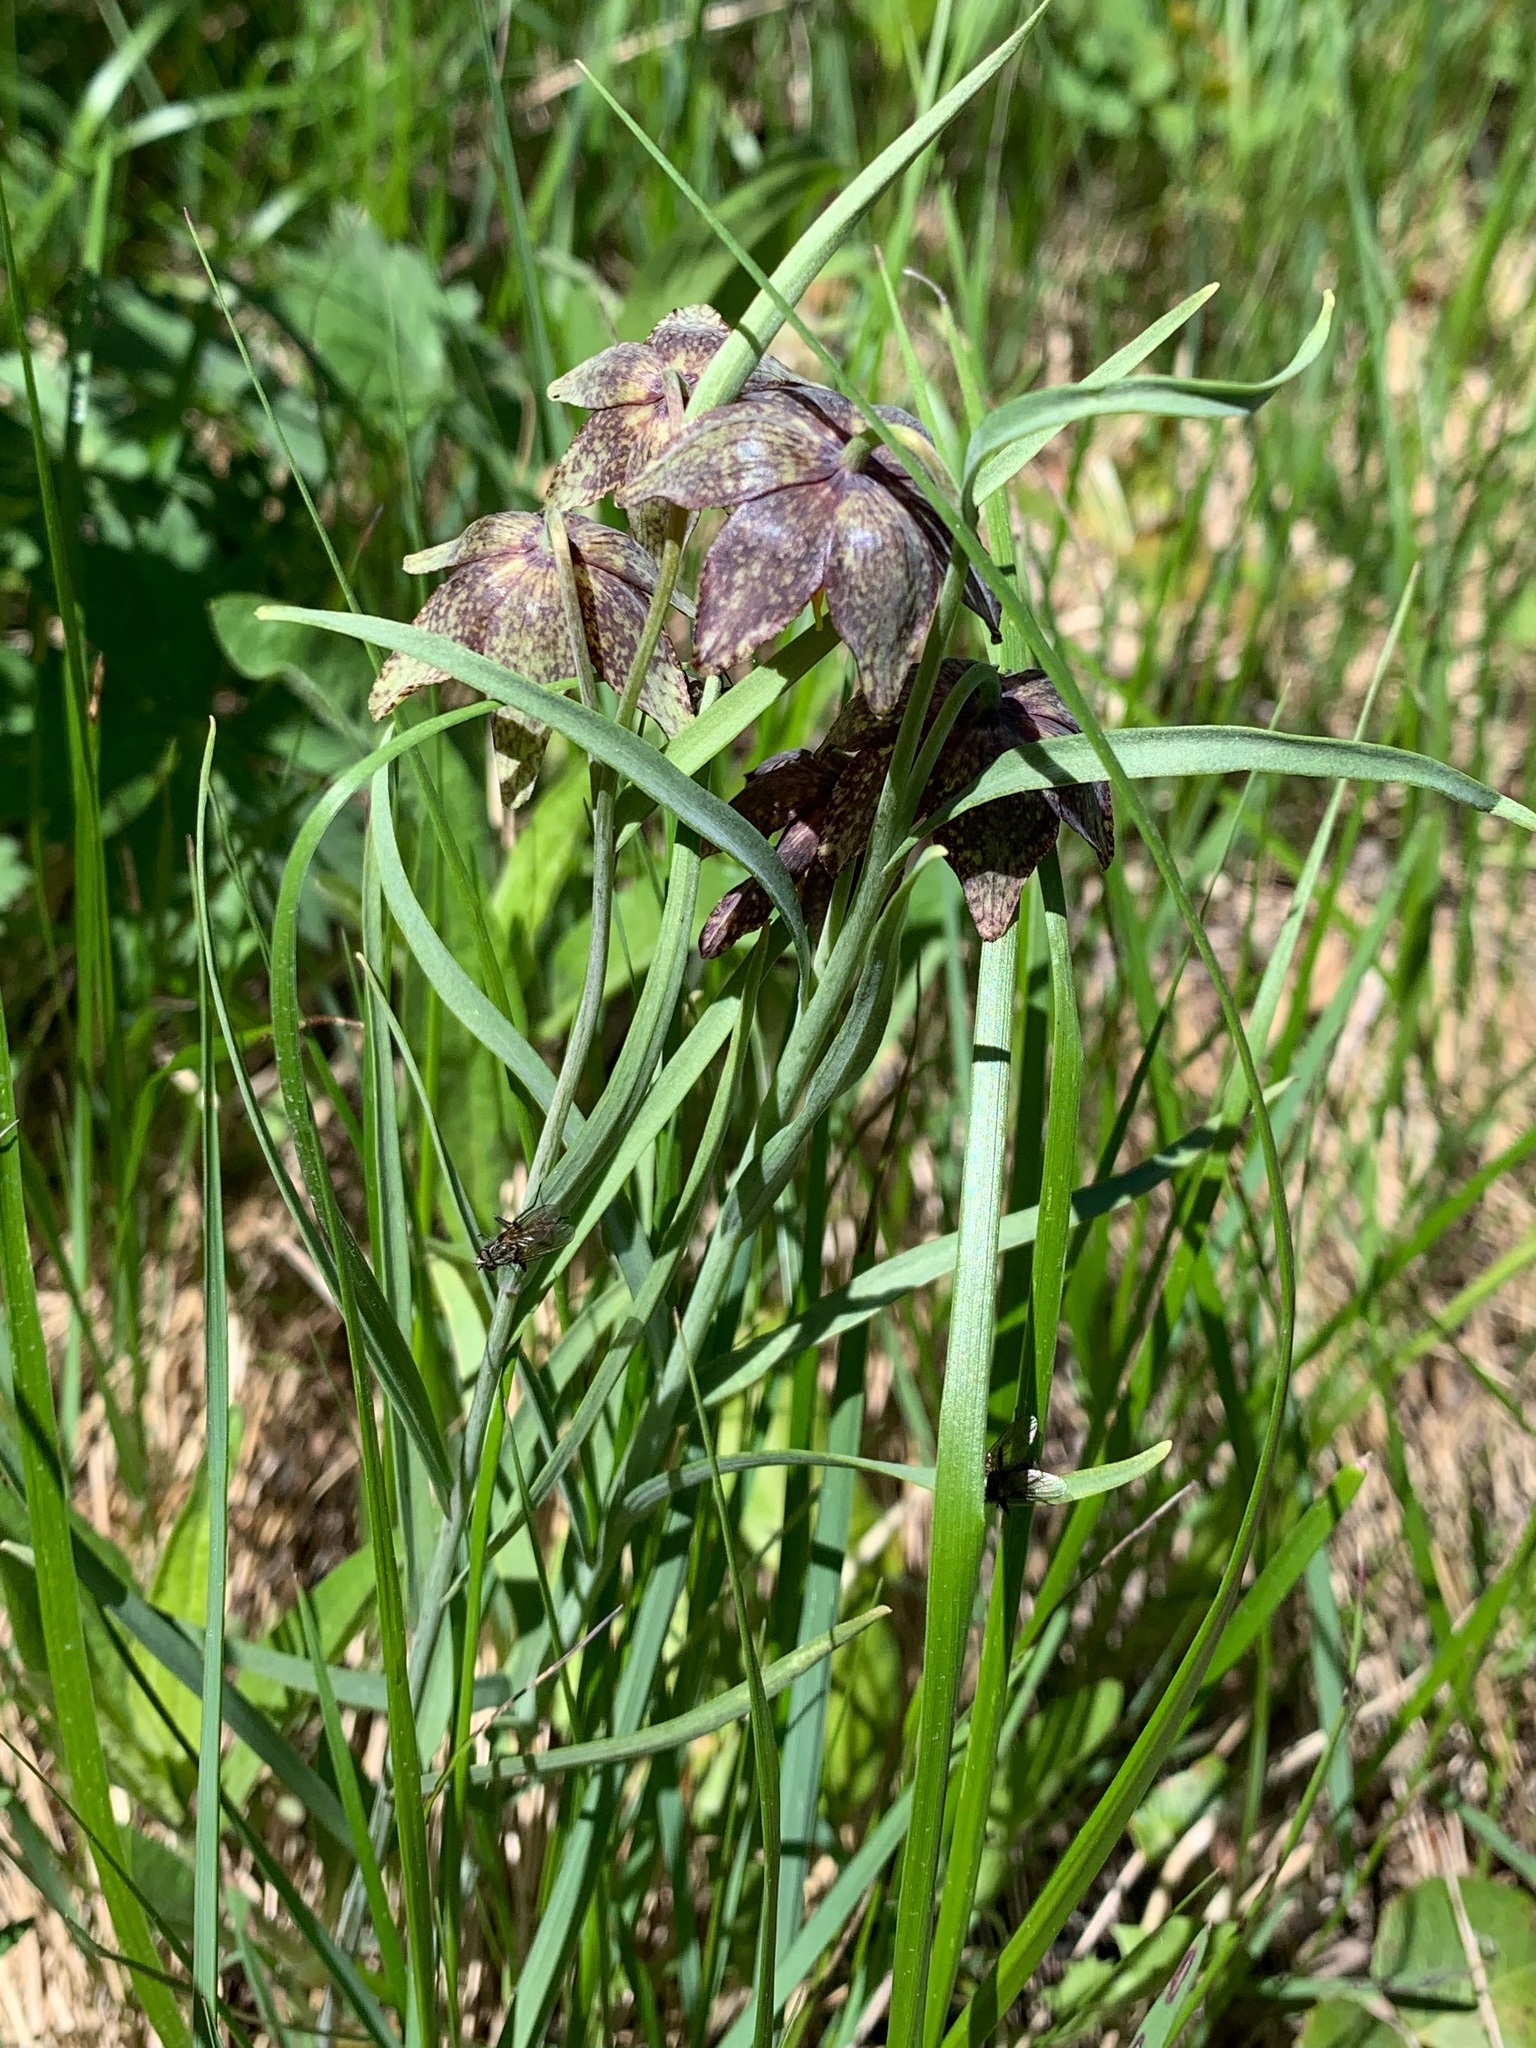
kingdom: Plantae
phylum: Tracheophyta
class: Liliopsida
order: Liliales
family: Liliaceae
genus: Fritillaria
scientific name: Fritillaria atropurpurea
